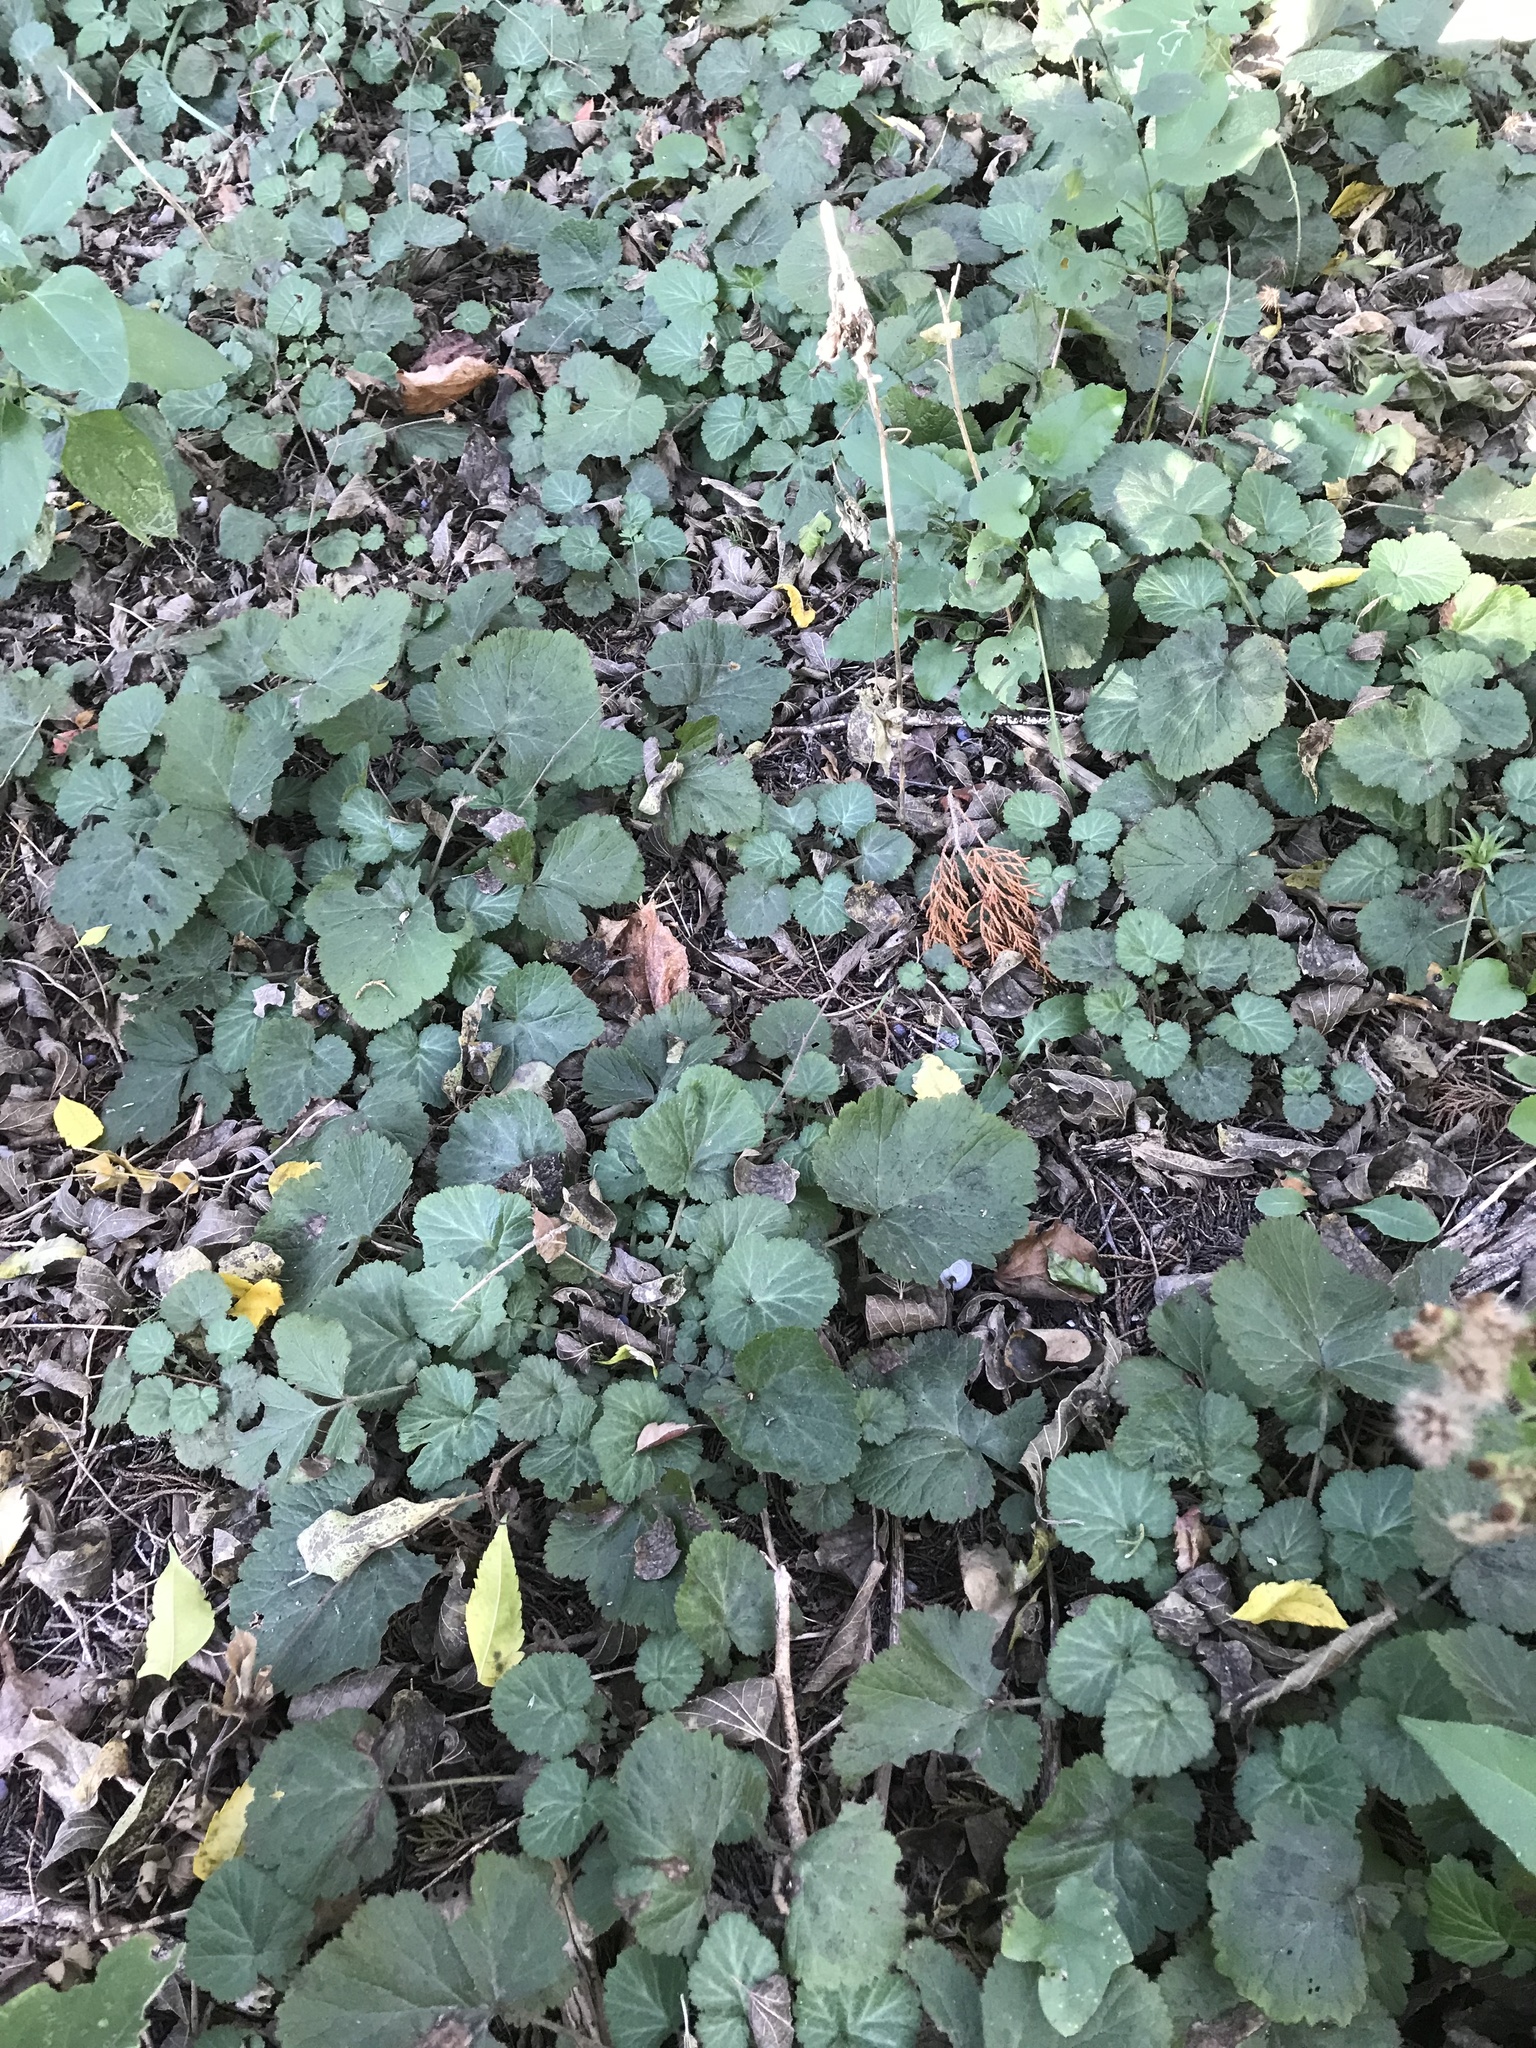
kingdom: Plantae
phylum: Tracheophyta
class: Magnoliopsida
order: Rosales
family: Rosaceae
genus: Geum
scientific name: Geum canadense
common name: White avens
